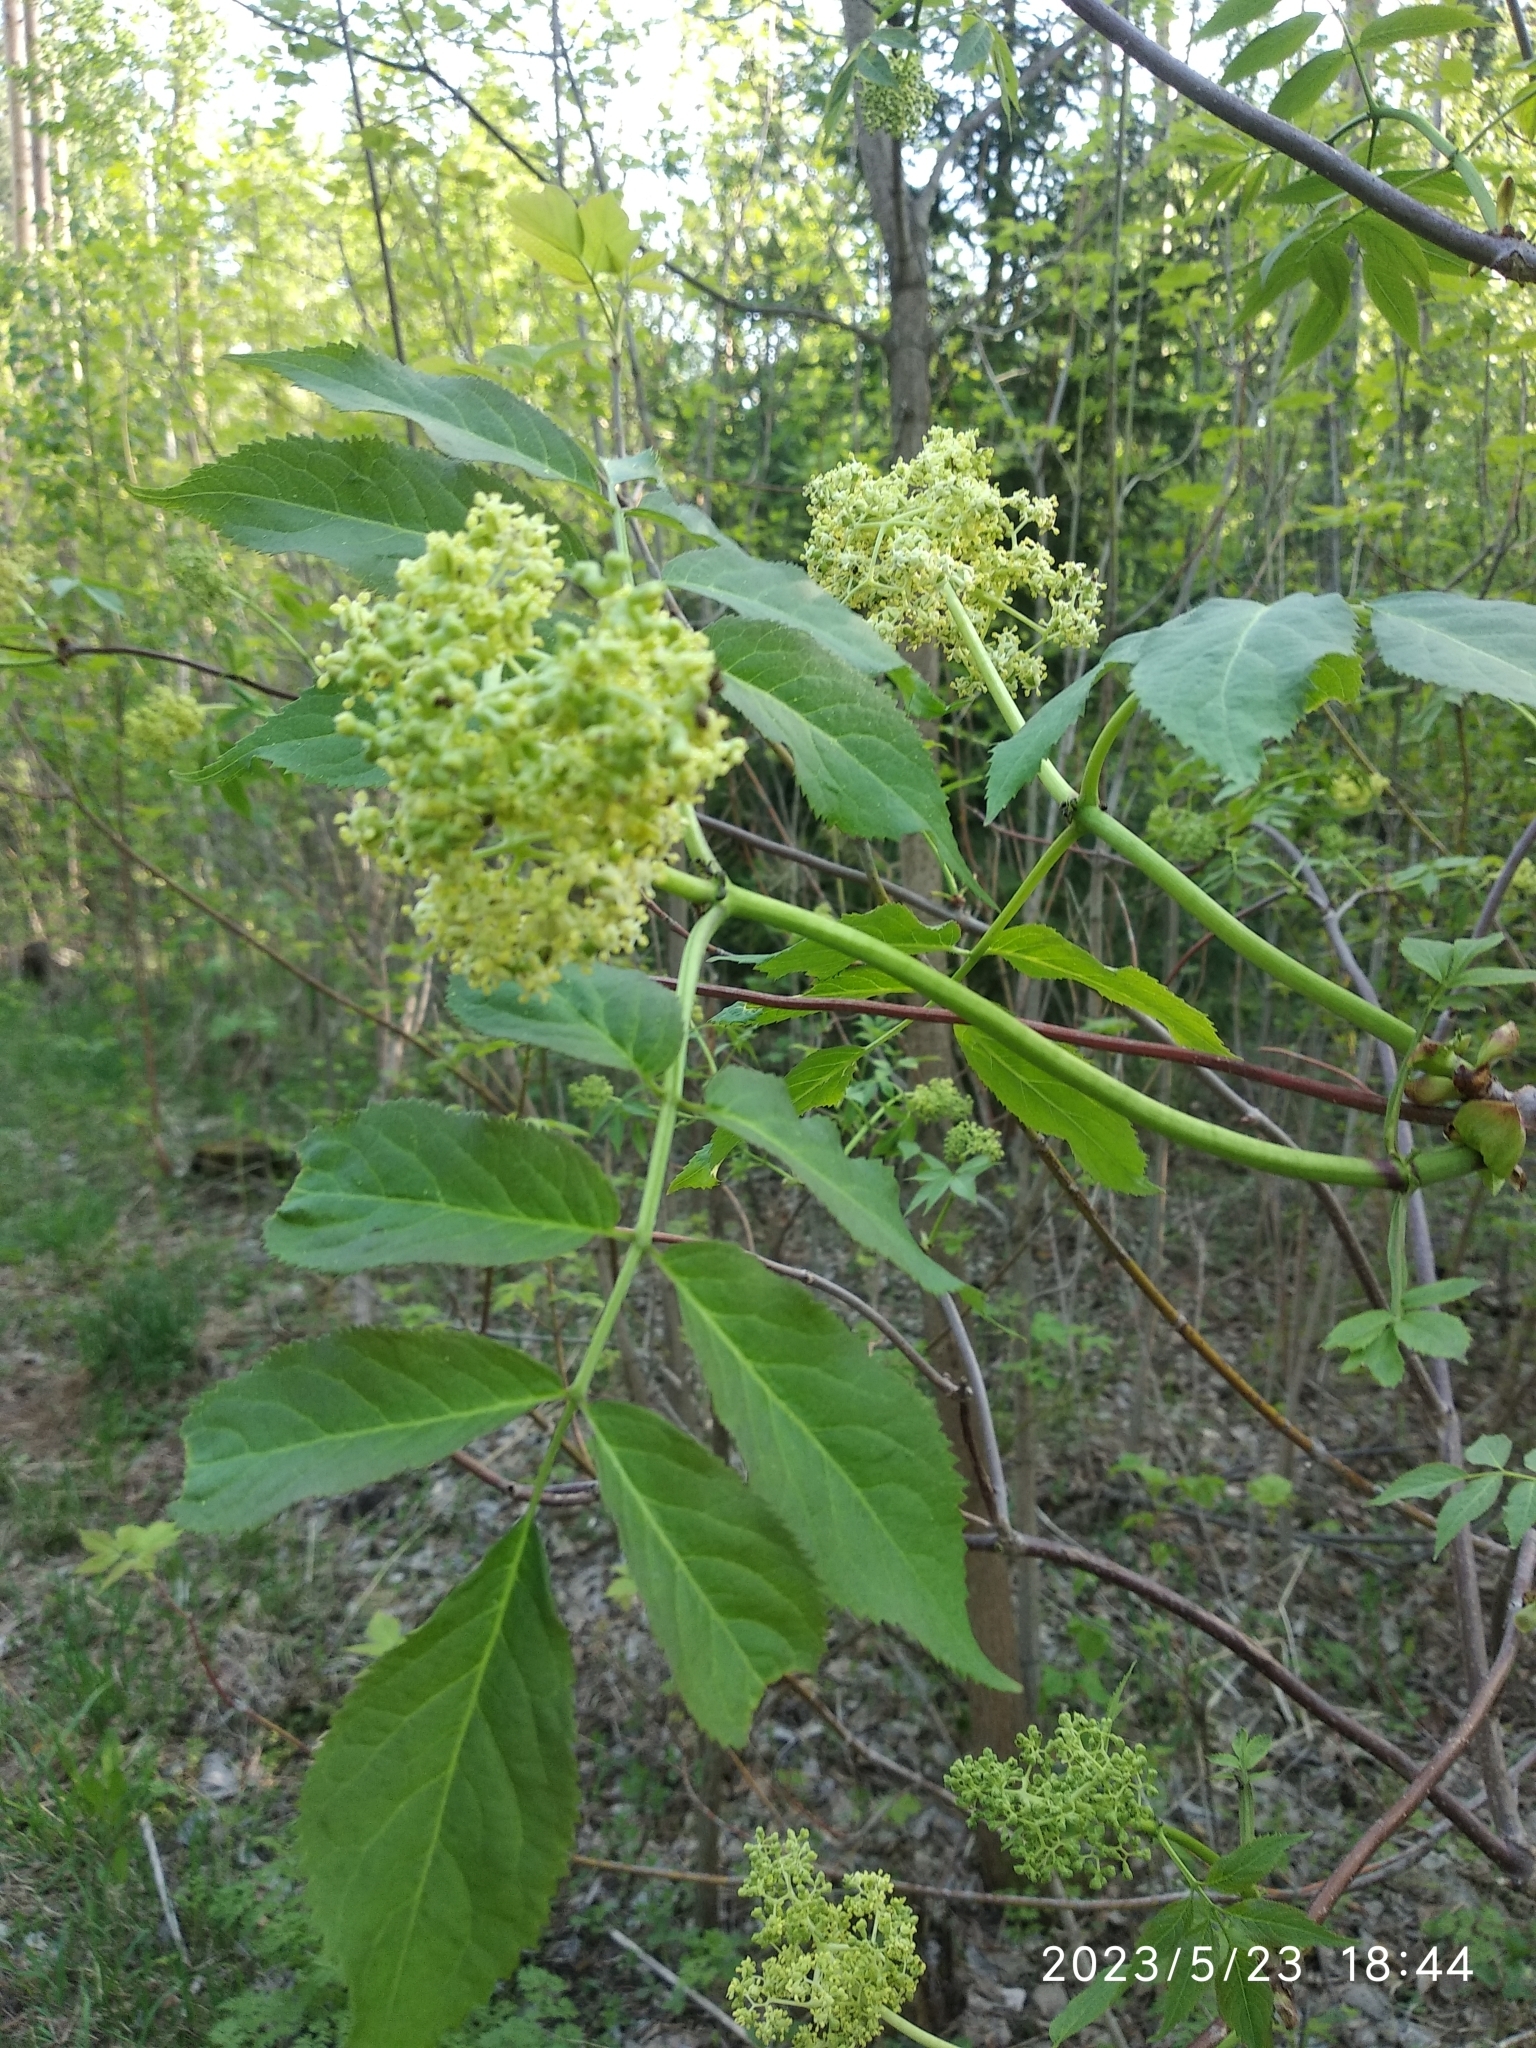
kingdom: Plantae
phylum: Tracheophyta
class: Magnoliopsida
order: Dipsacales
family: Viburnaceae
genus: Sambucus
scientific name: Sambucus racemosa
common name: Red-berried elder
